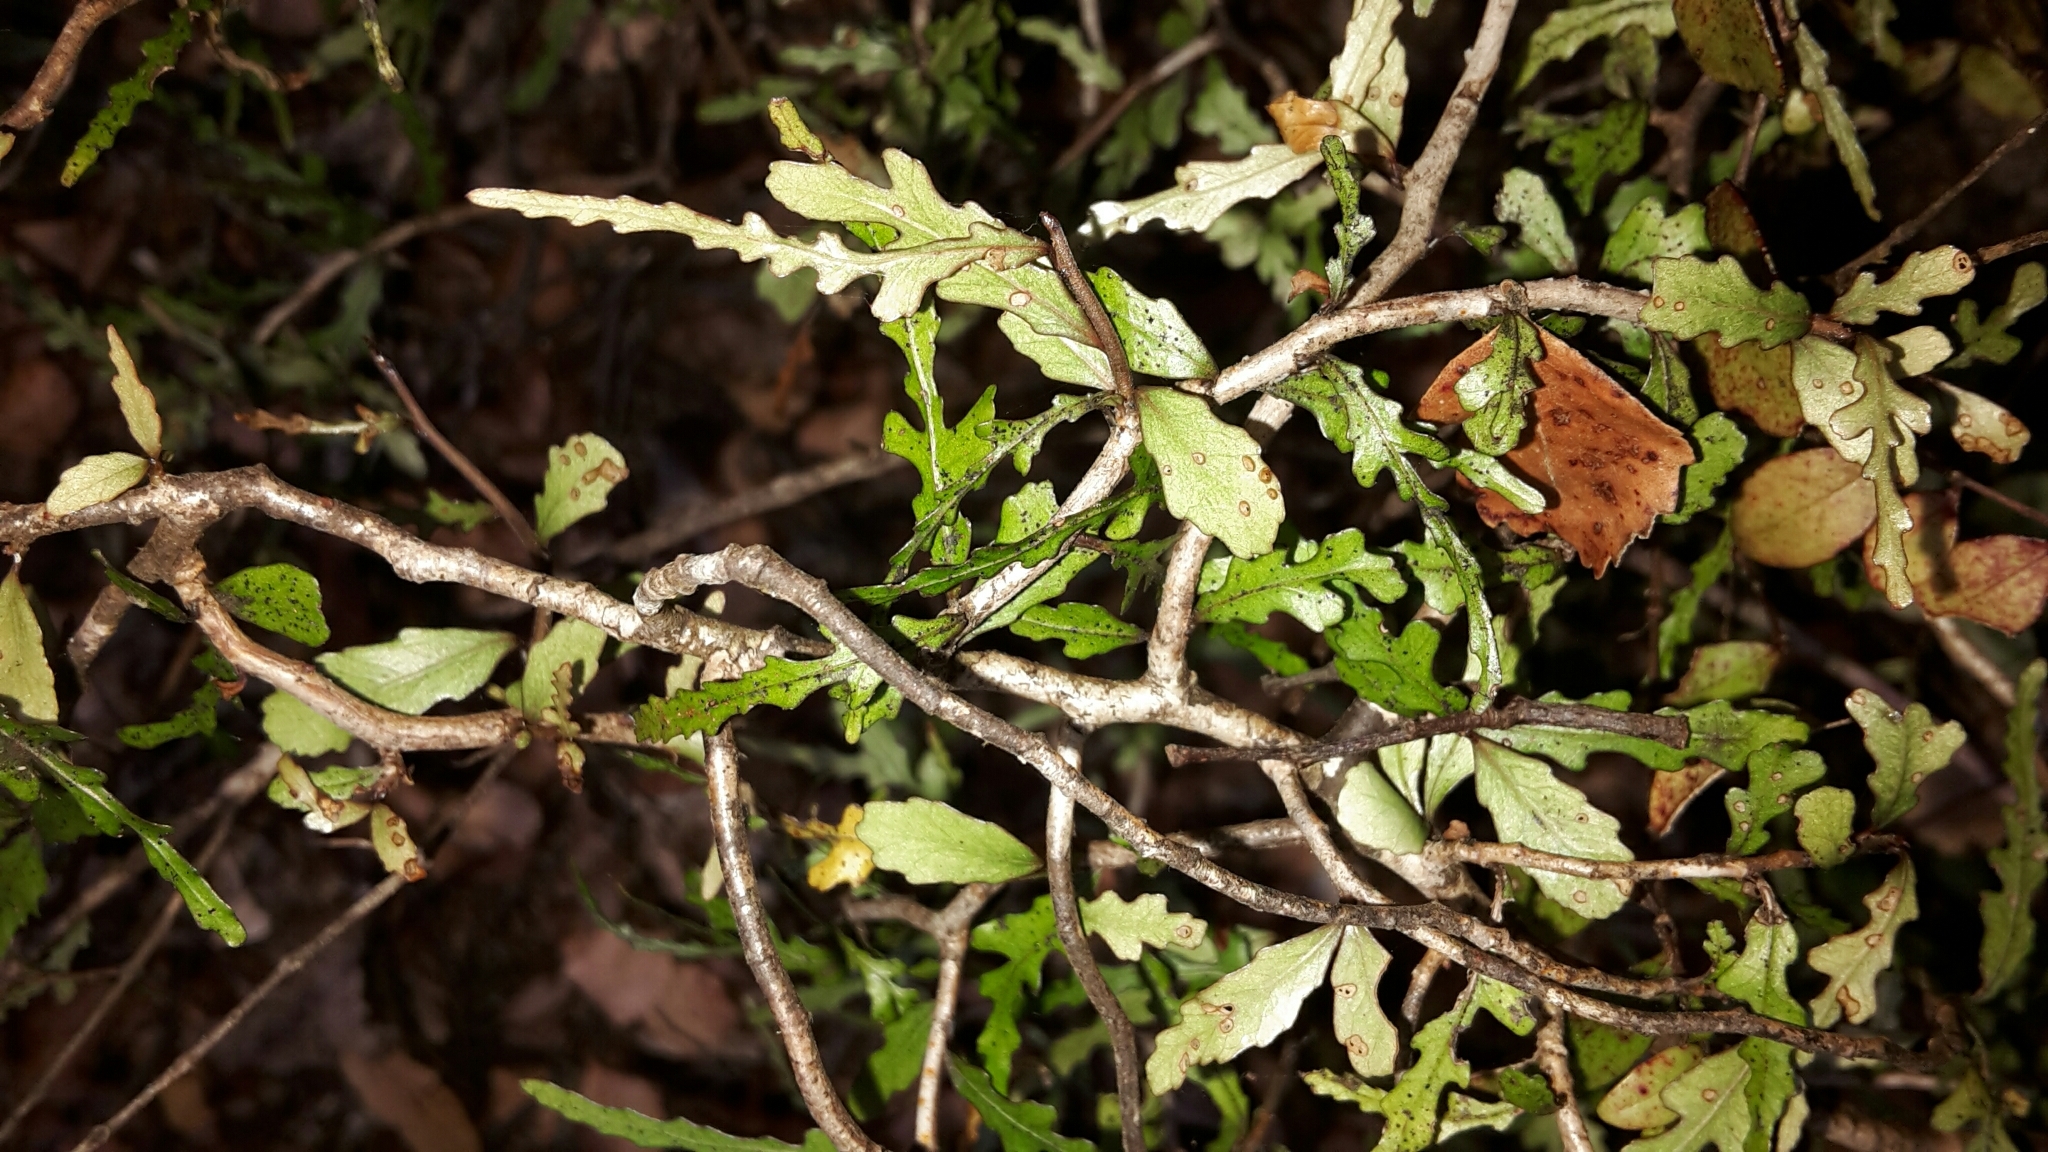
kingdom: Plantae
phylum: Tracheophyta
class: Magnoliopsida
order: Oxalidales
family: Elaeocarpaceae
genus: Elaeocarpus
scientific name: Elaeocarpus hookerianus
